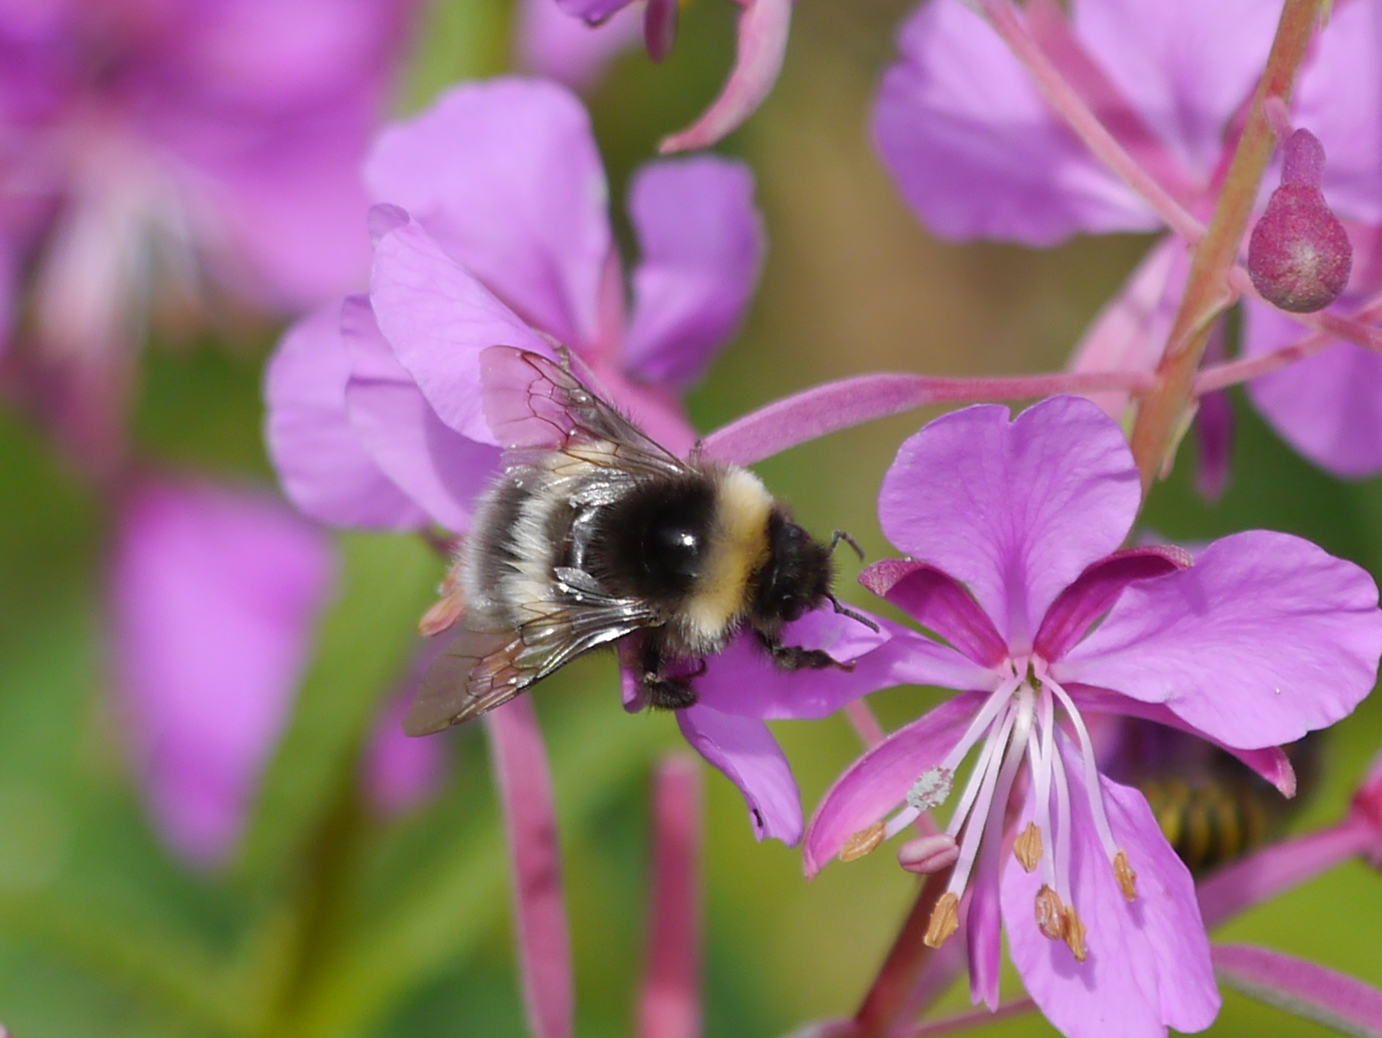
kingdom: Animalia
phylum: Arthropoda
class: Insecta
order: Hymenoptera
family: Apidae
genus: Bombus
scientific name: Bombus cryptarum
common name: Cryptic bumblebee
